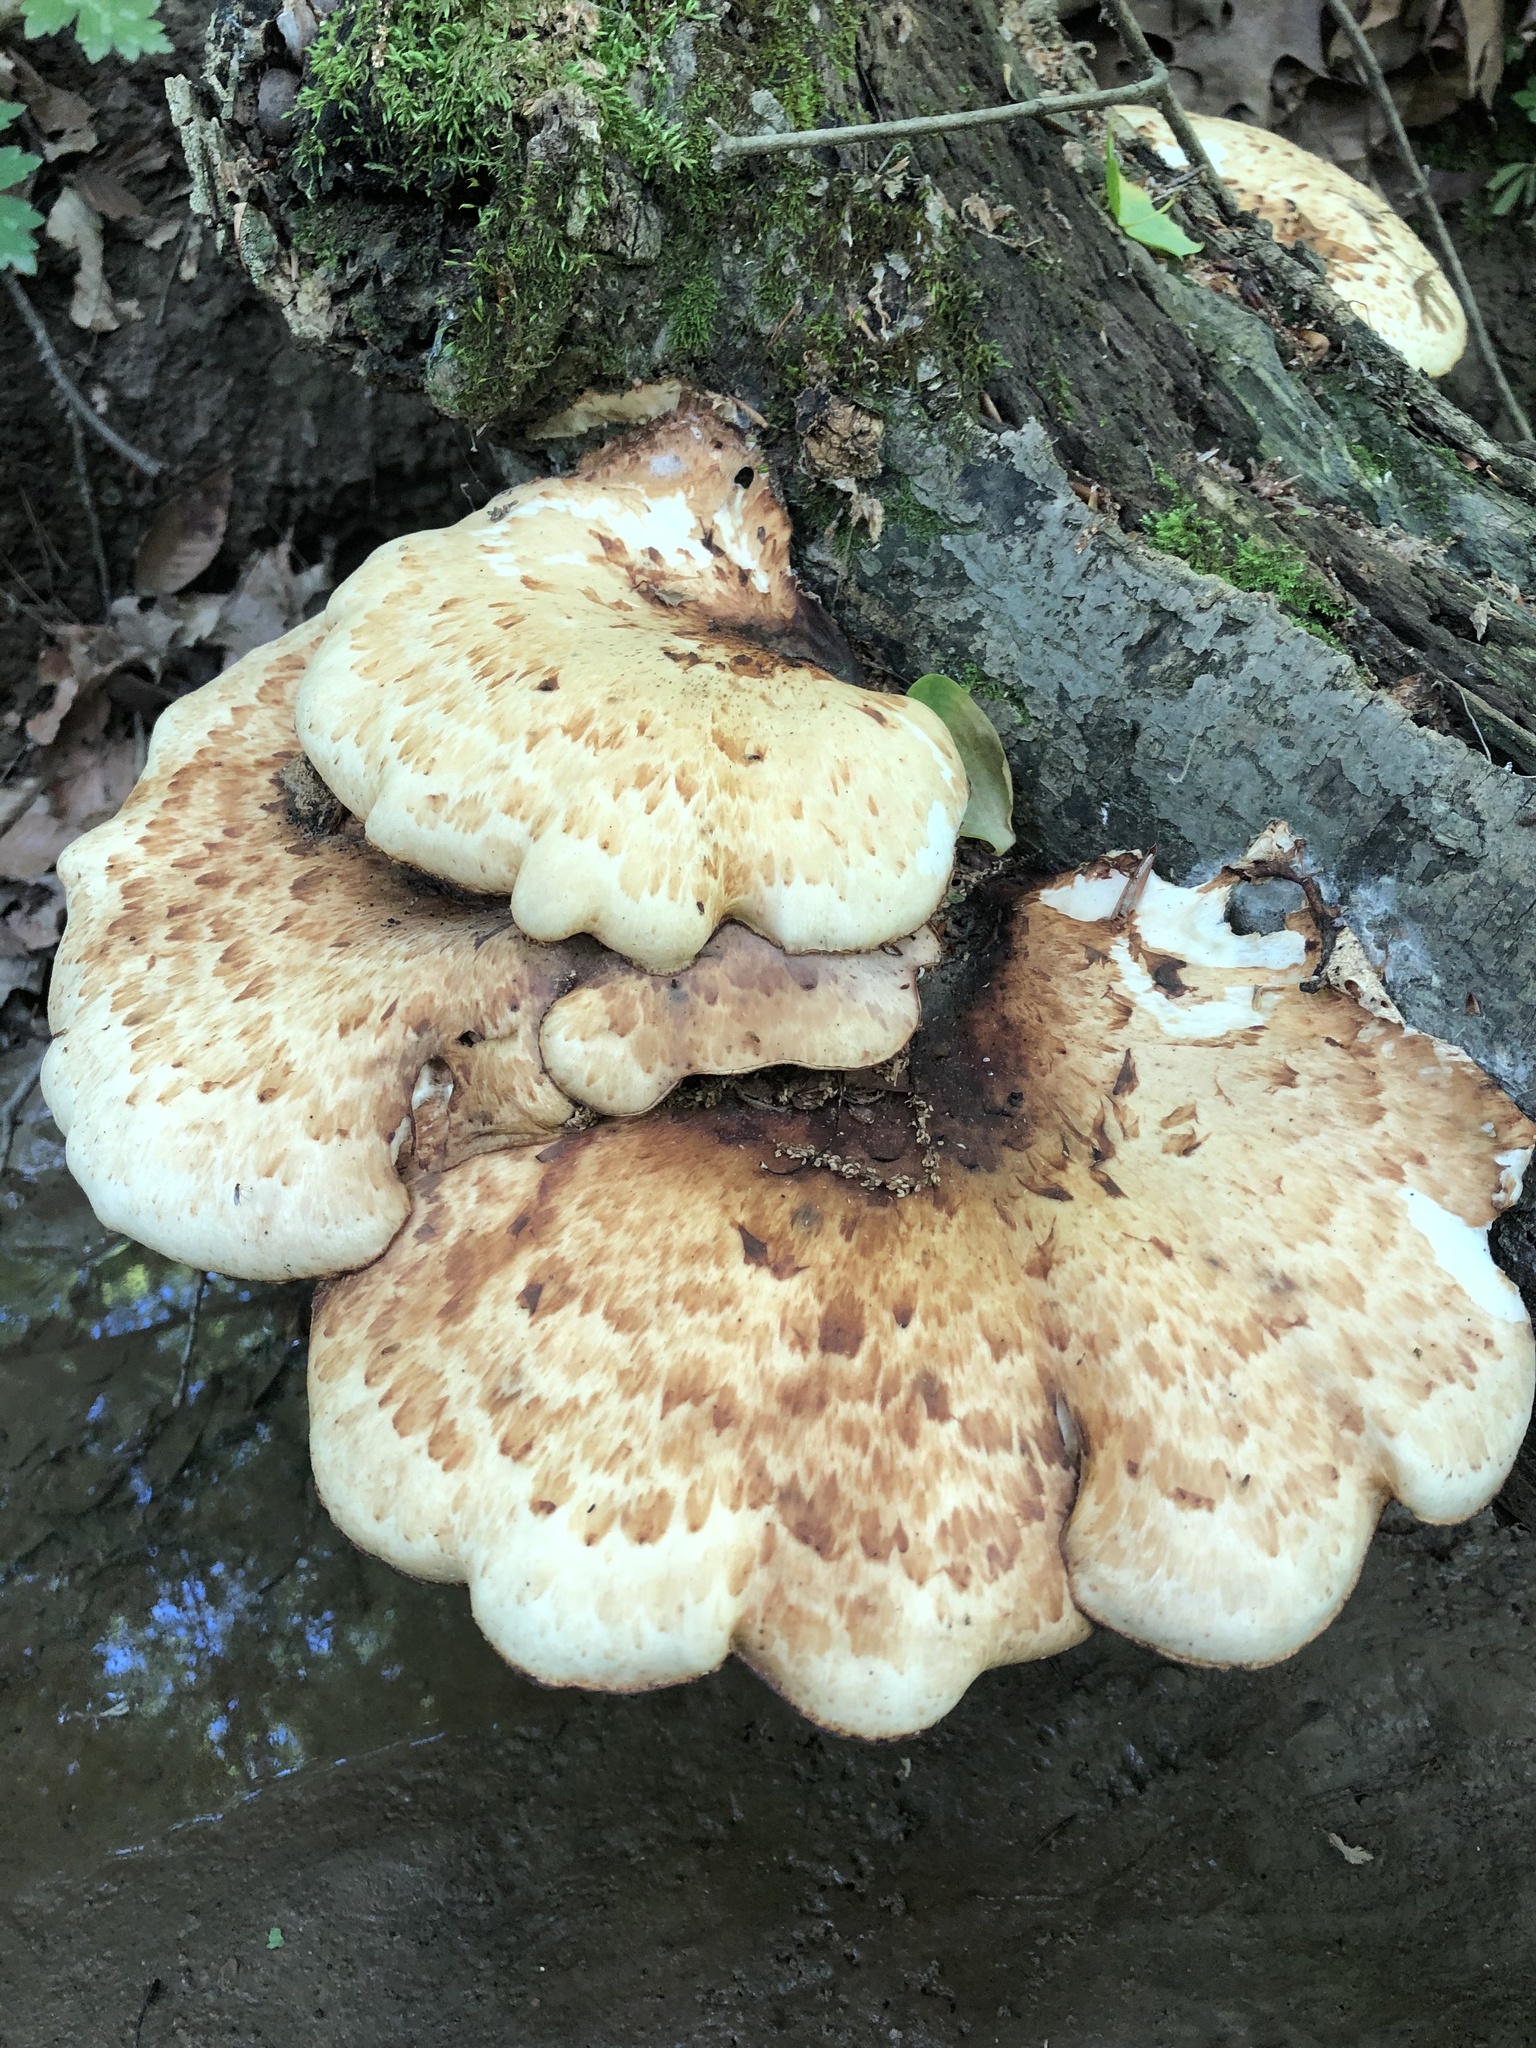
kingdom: Fungi
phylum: Basidiomycota
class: Agaricomycetes
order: Polyporales
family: Polyporaceae
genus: Cerioporus
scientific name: Cerioporus squamosus
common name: Dryad's saddle
